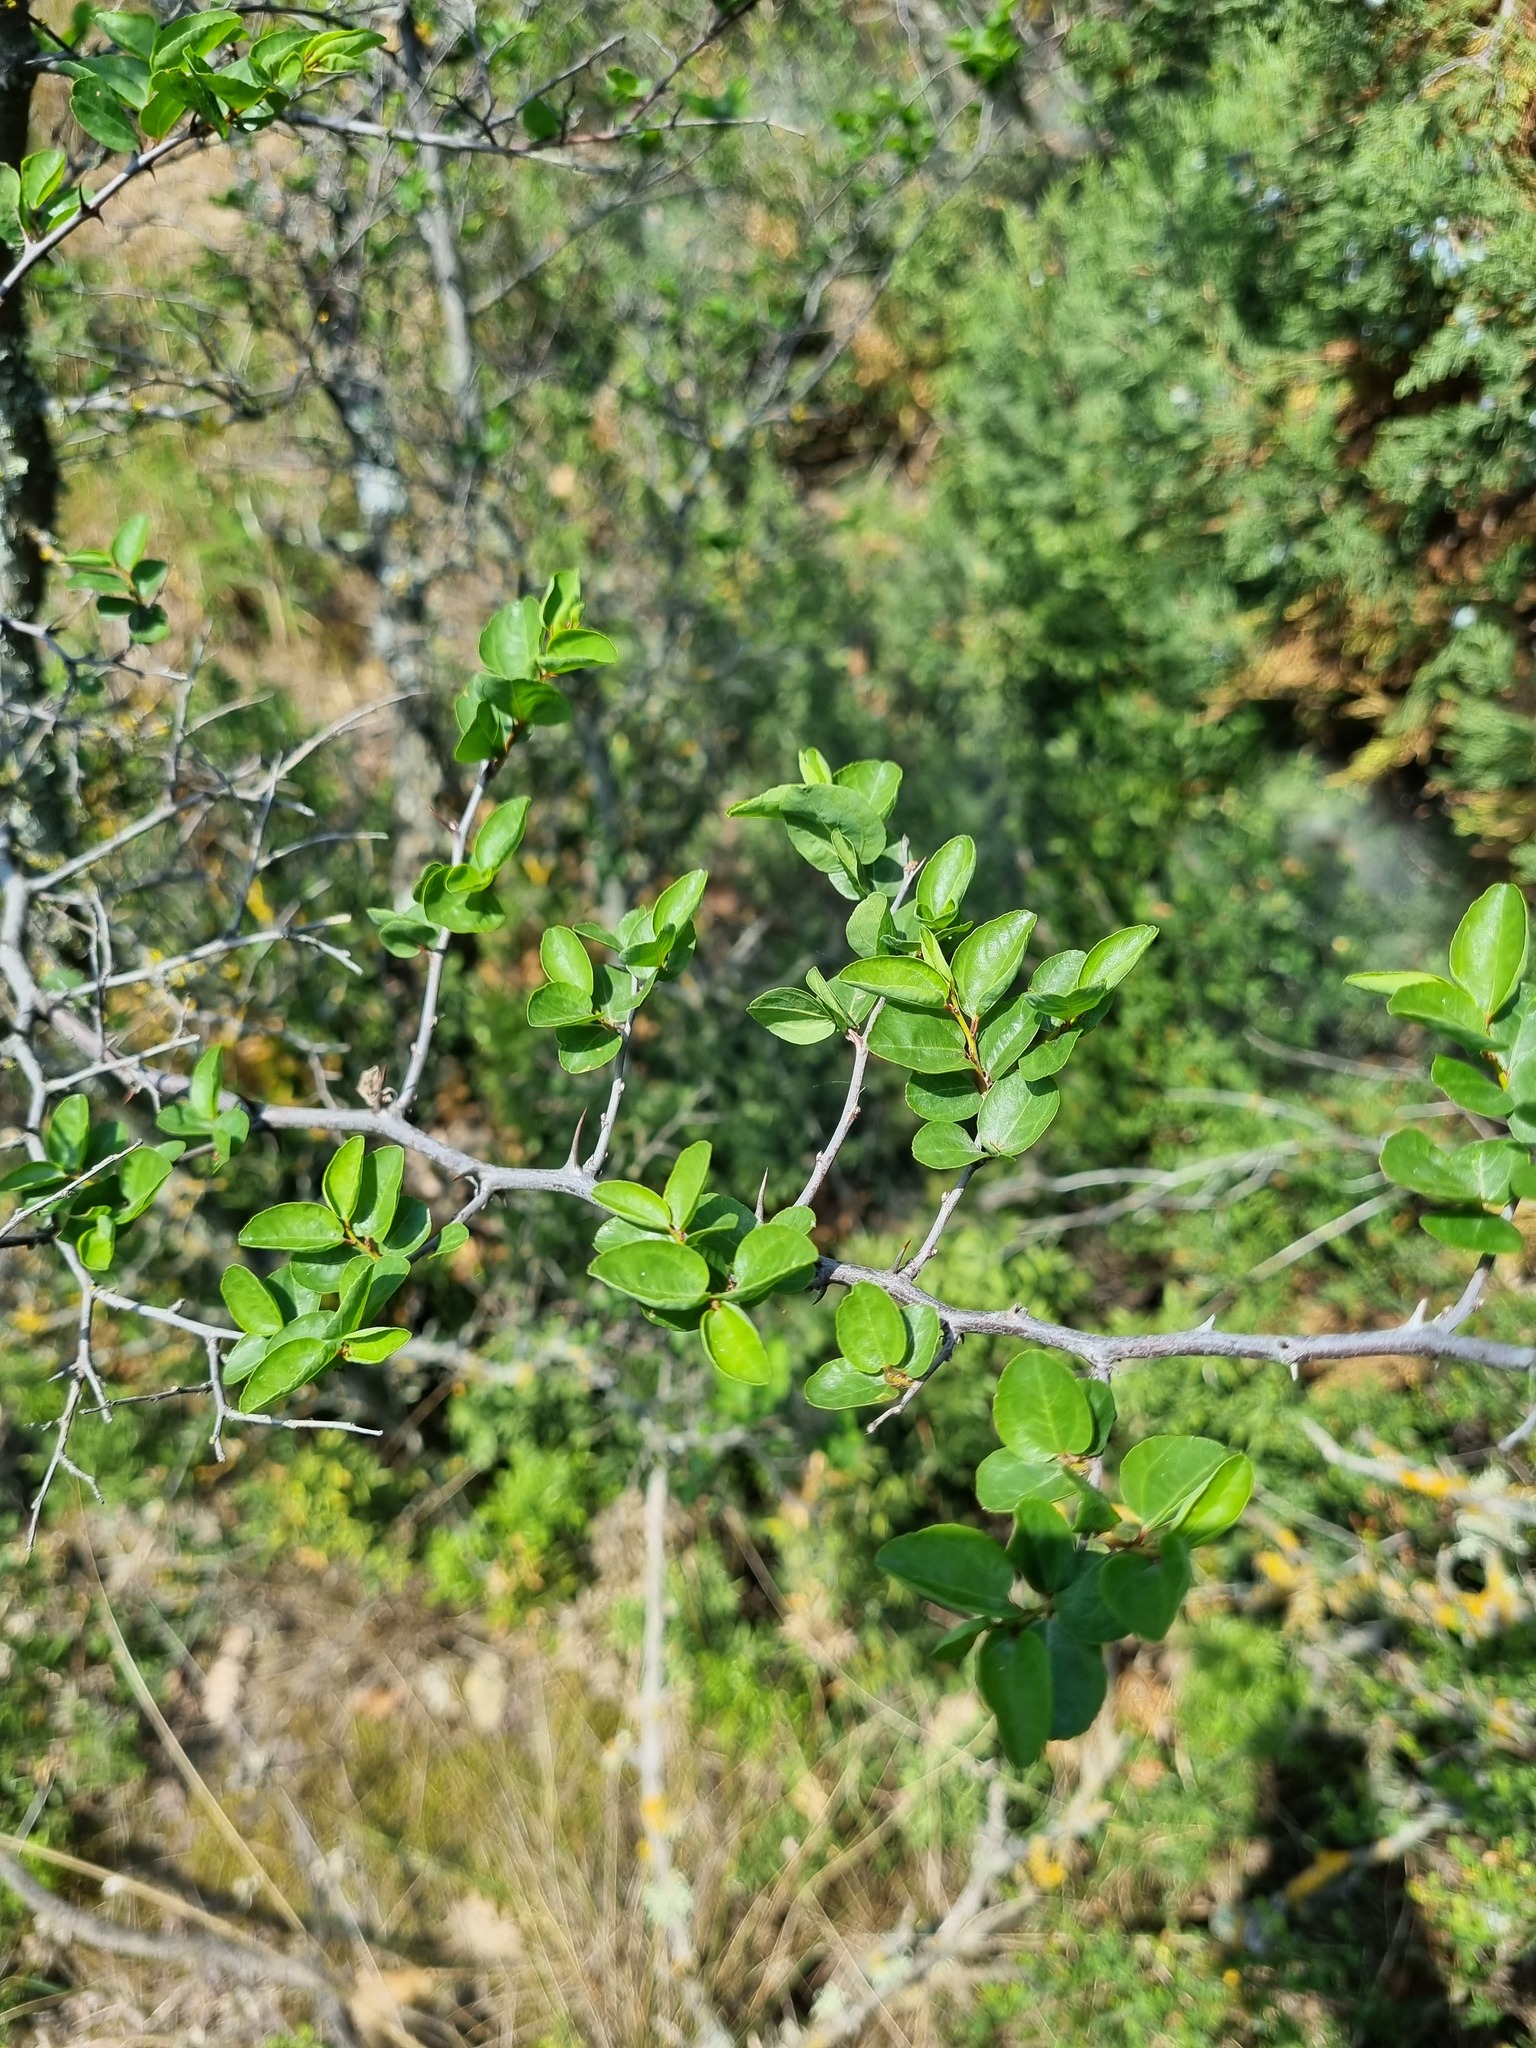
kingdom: Plantae
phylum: Tracheophyta
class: Magnoliopsida
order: Rosales
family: Rhamnaceae
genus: Paliurus
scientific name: Paliurus spina-christi
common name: Jeruselem thorn
